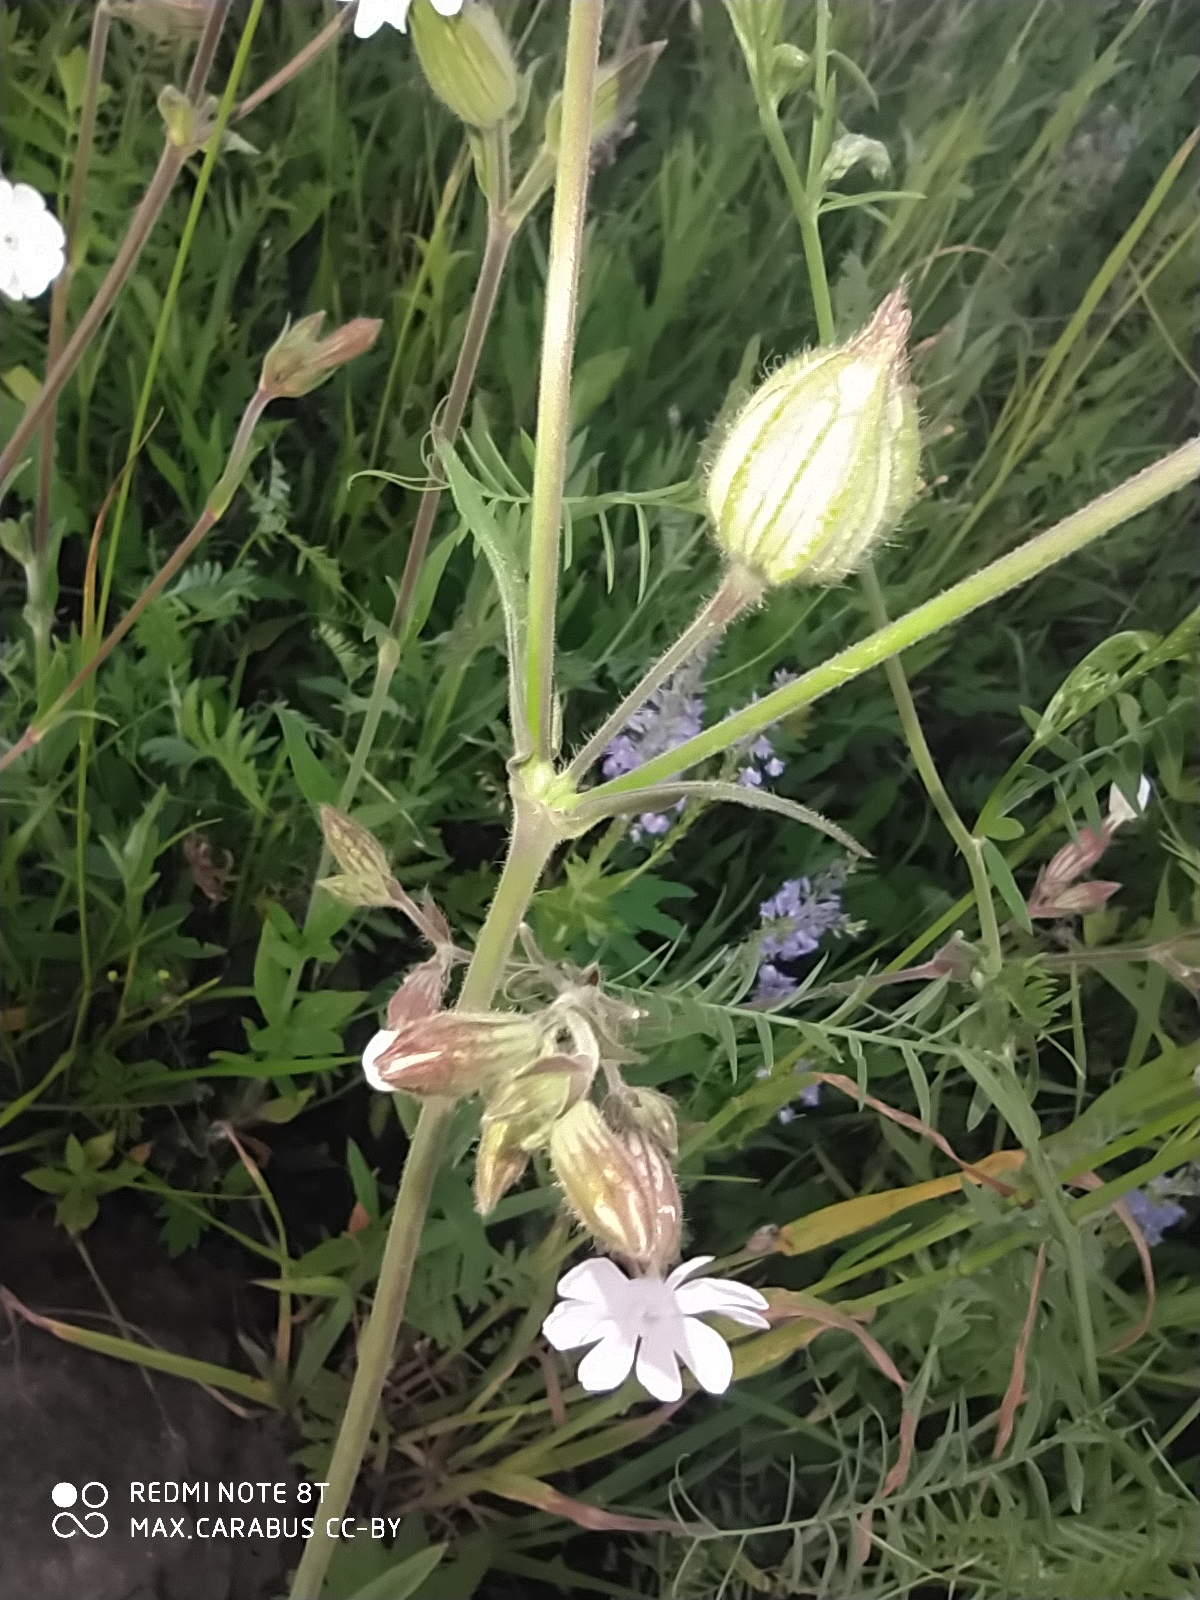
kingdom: Plantae
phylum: Tracheophyta
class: Magnoliopsida
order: Caryophyllales
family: Caryophyllaceae
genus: Silene
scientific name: Silene latifolia
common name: White campion
